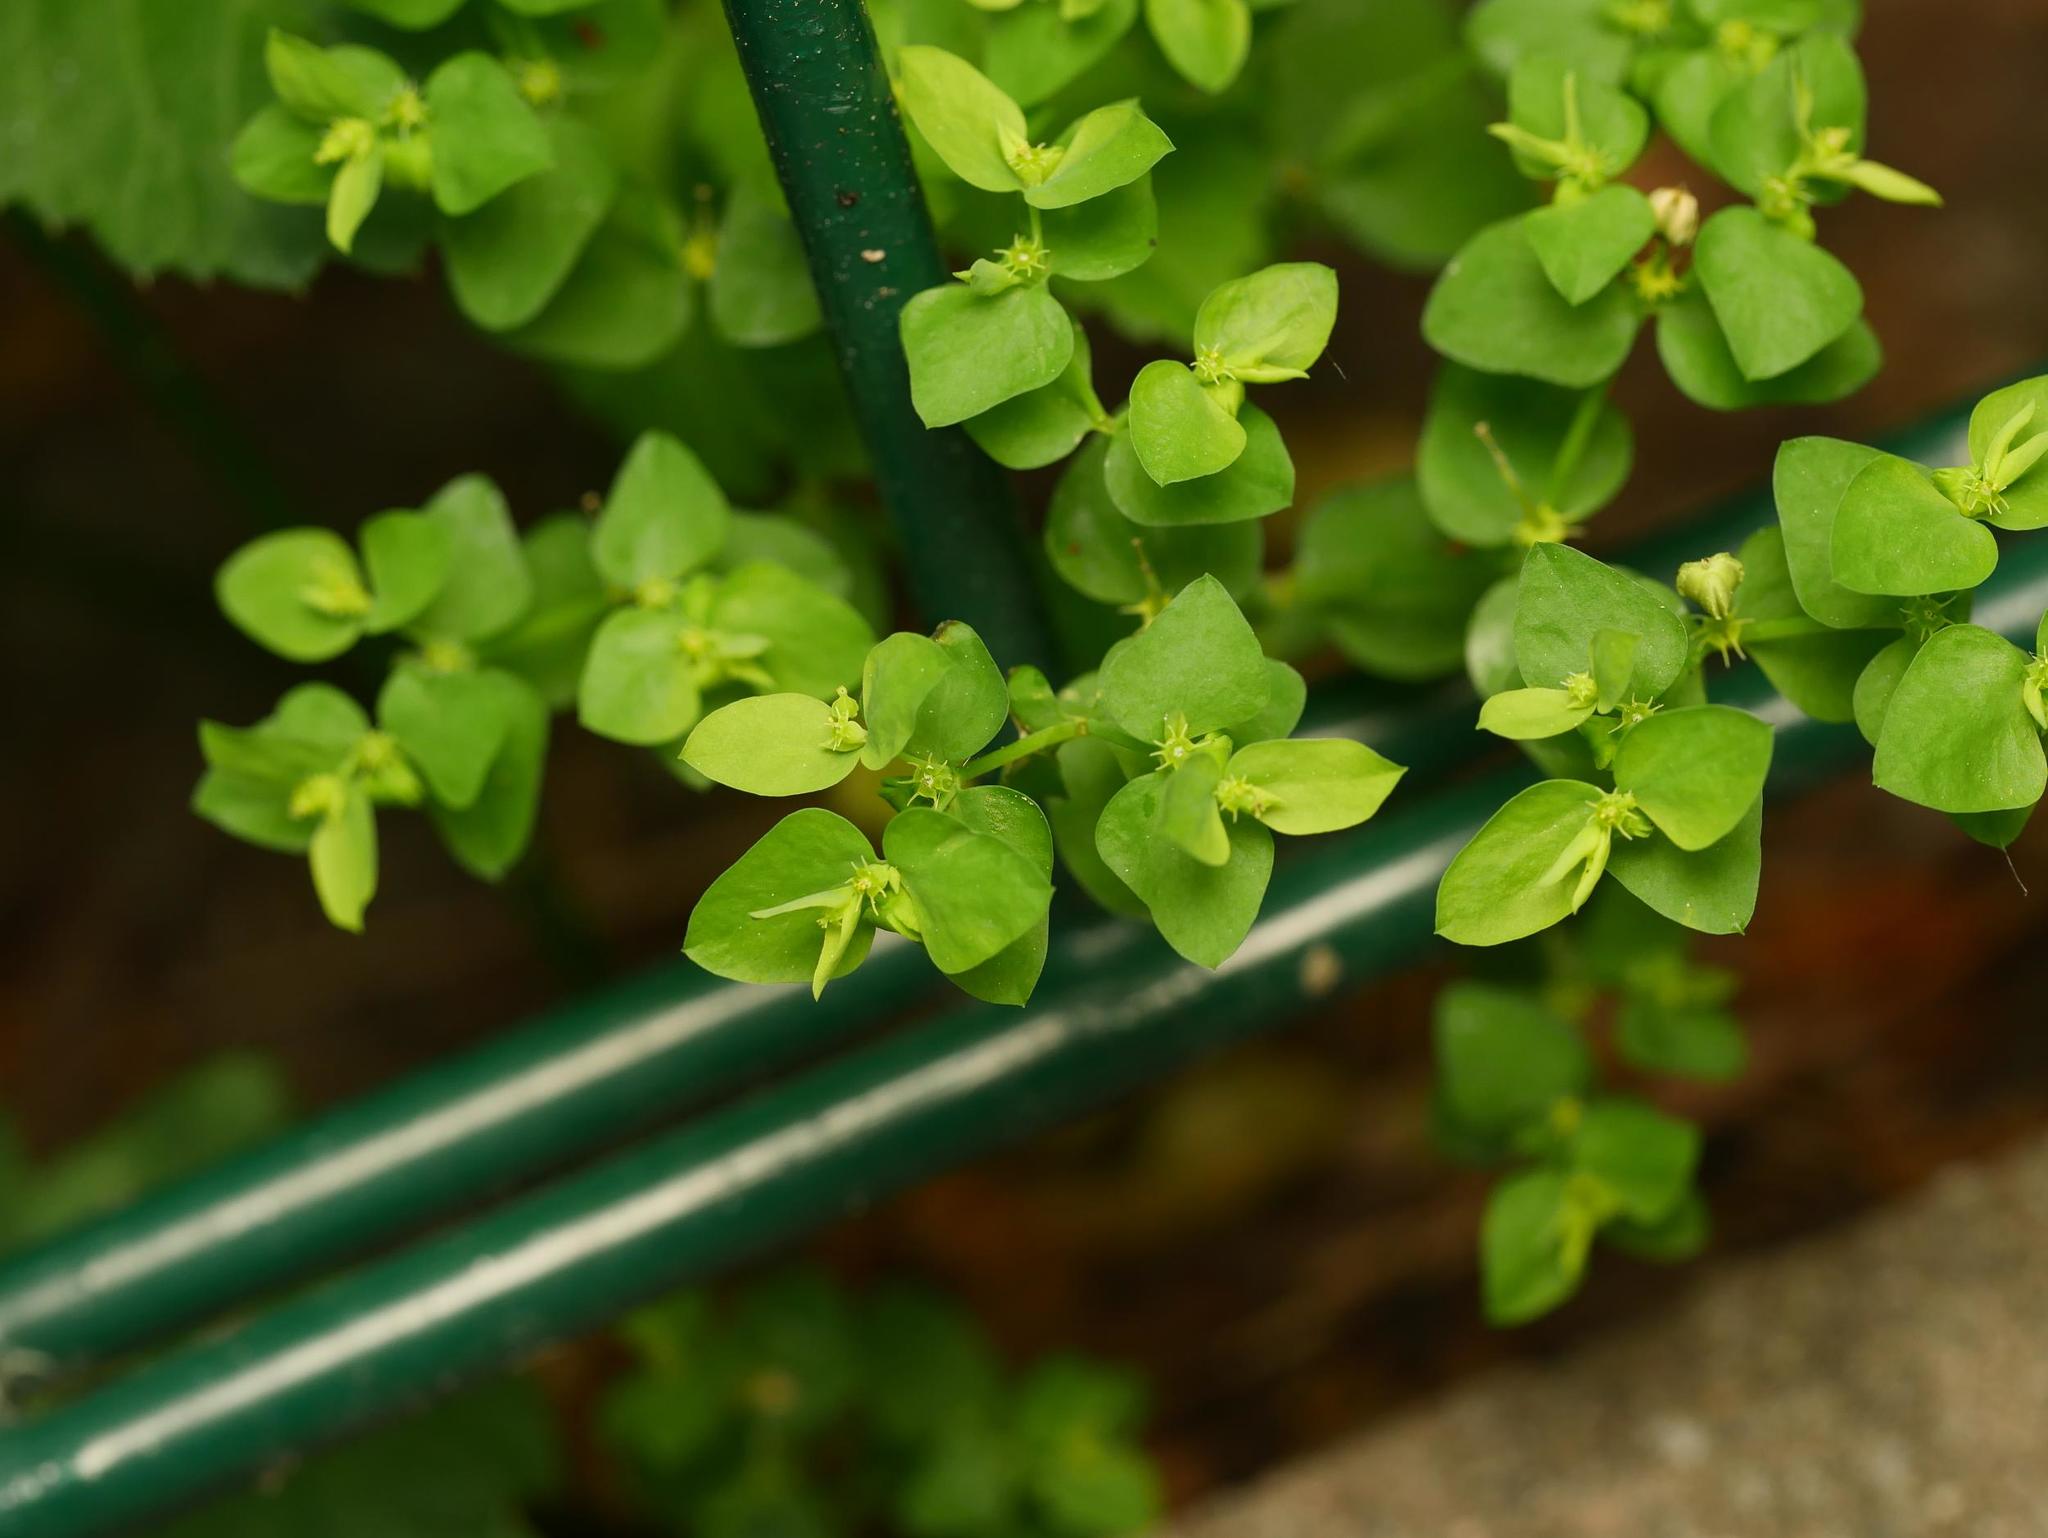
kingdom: Plantae
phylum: Tracheophyta
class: Magnoliopsida
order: Malpighiales
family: Euphorbiaceae
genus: Euphorbia
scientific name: Euphorbia peplus
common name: Petty spurge
